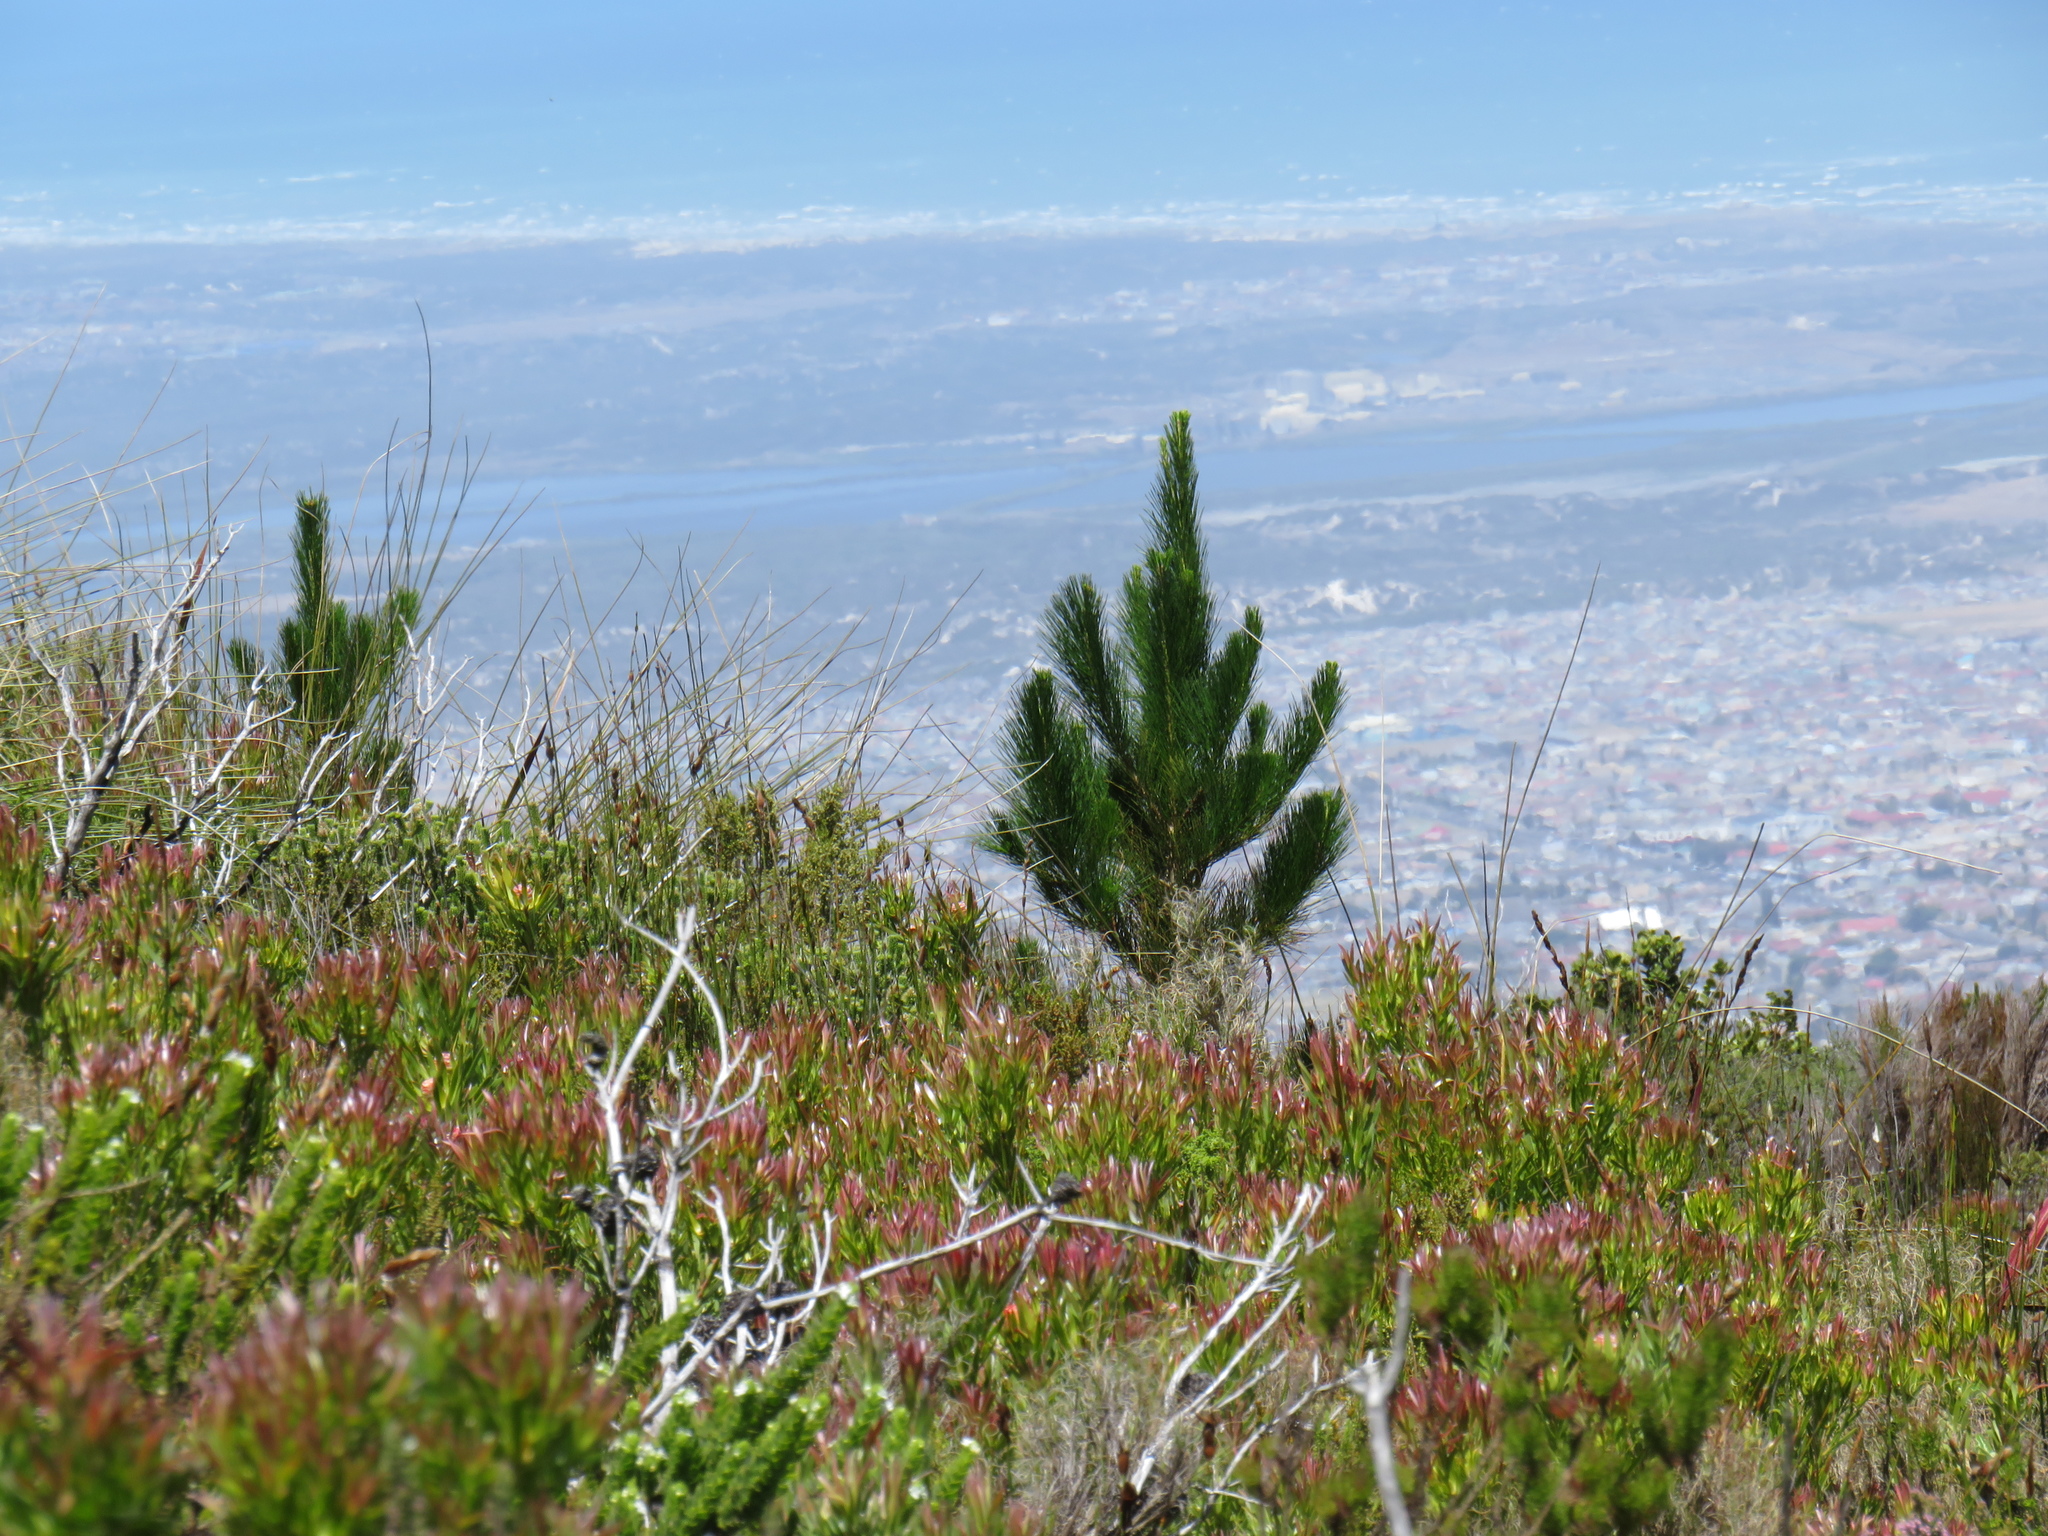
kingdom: Plantae
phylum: Tracheophyta
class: Pinopsida
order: Pinales
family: Pinaceae
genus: Pinus
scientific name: Pinus radiata
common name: Monterey pine
